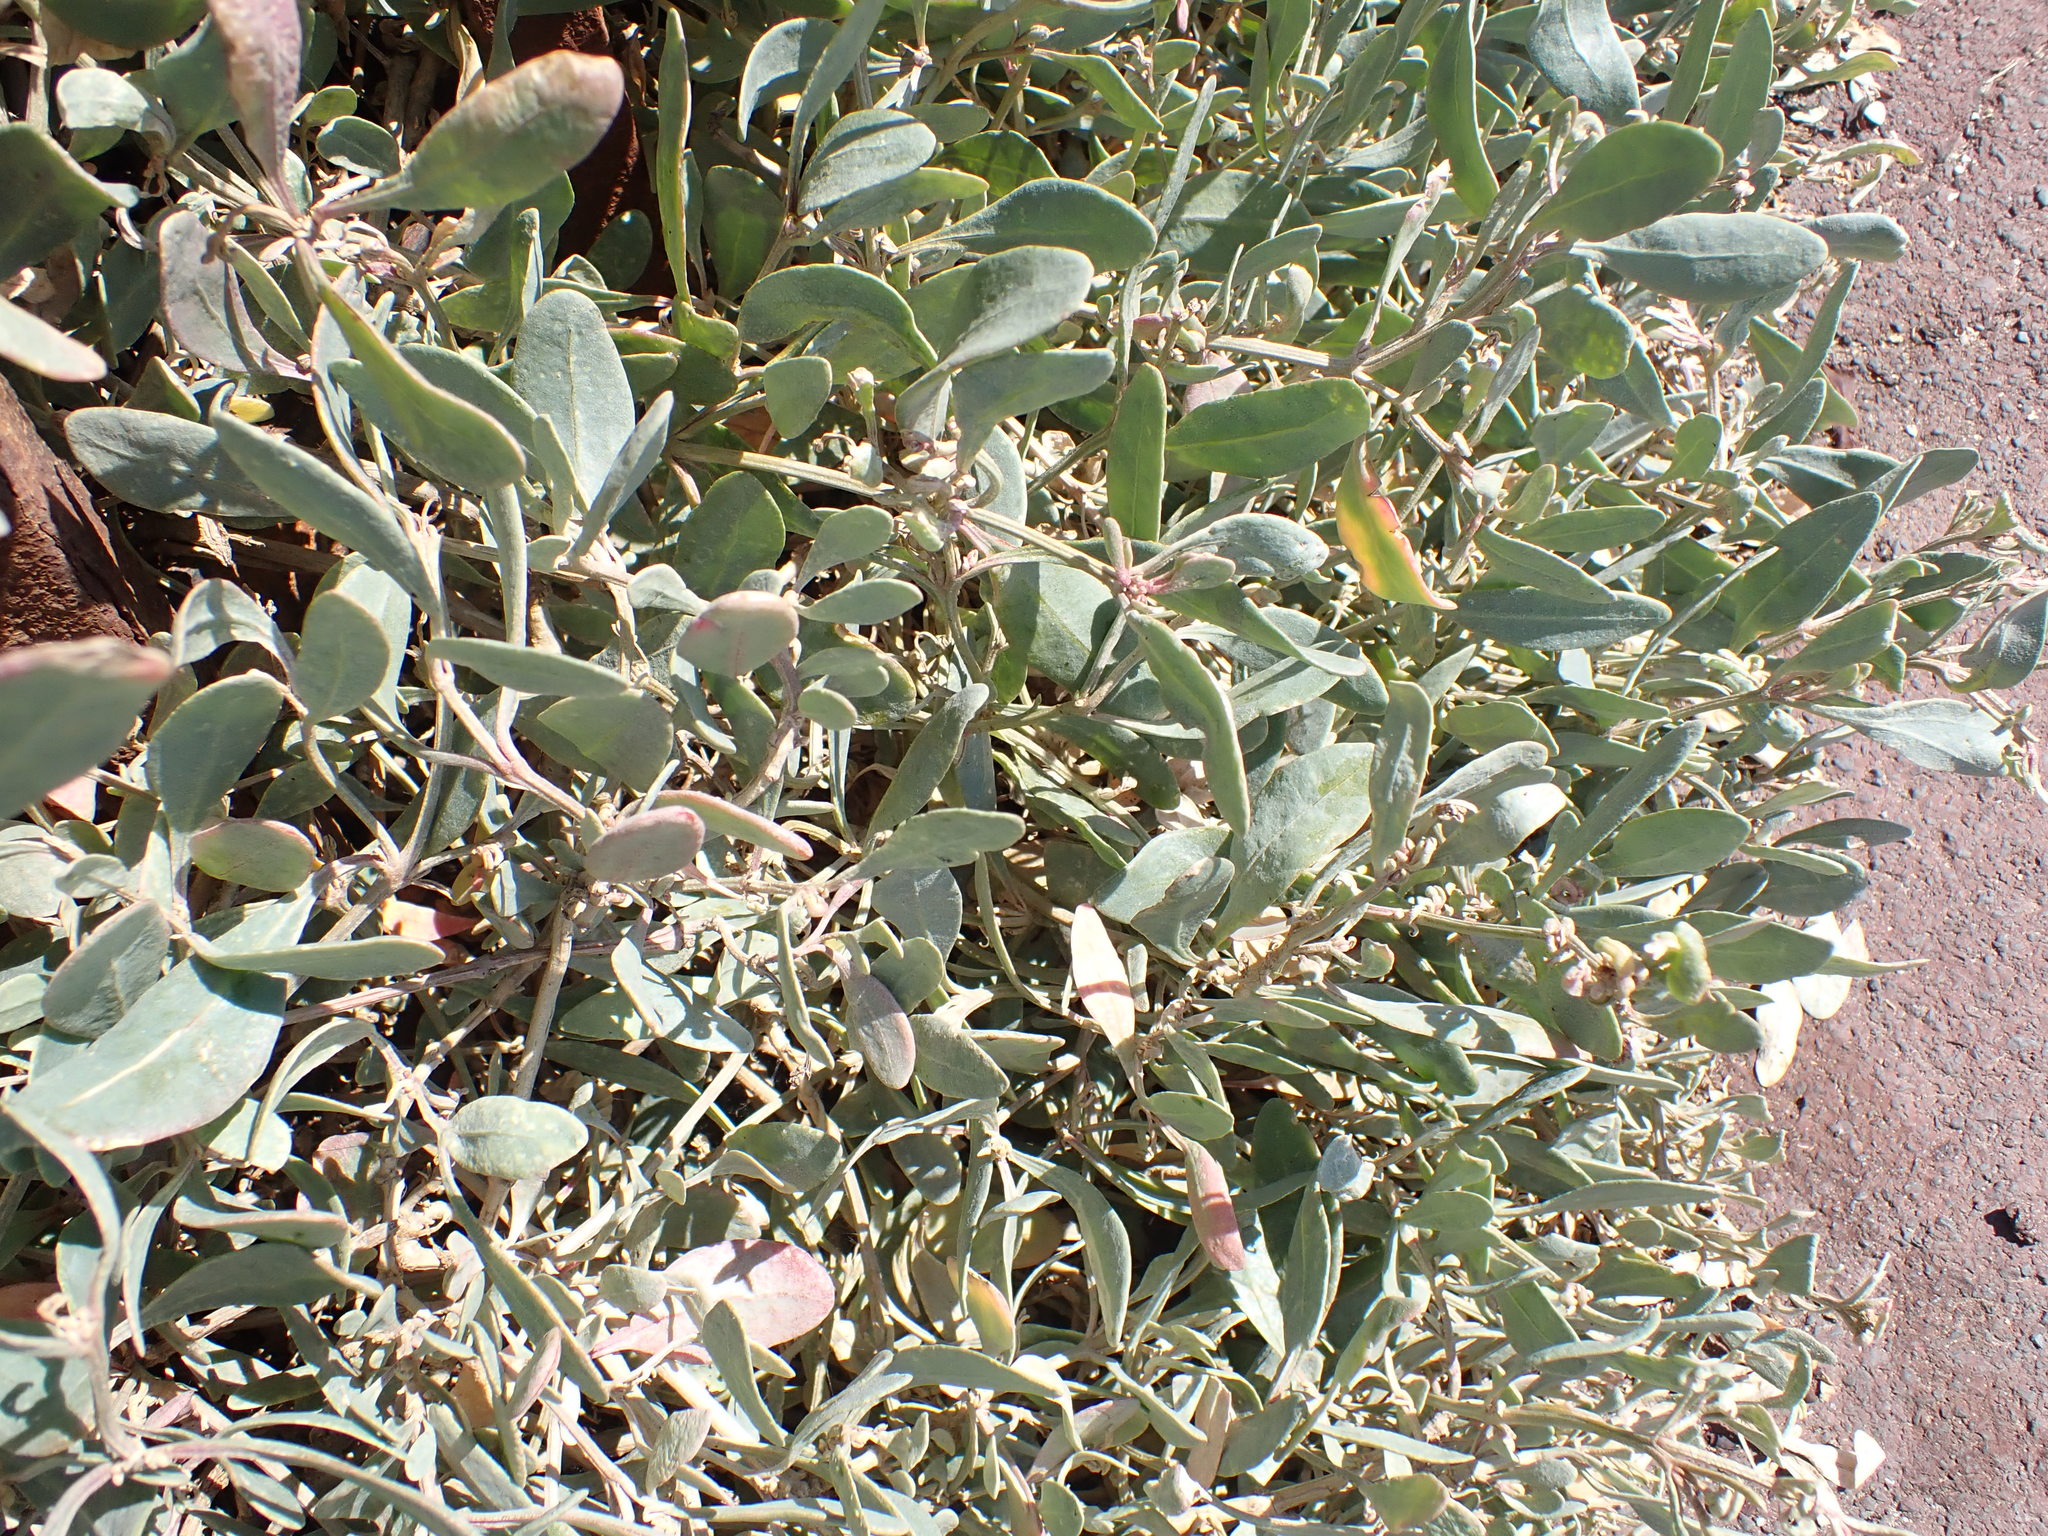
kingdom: Plantae
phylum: Tracheophyta
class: Magnoliopsida
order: Caryophyllales
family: Amaranthaceae
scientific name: Amaranthaceae
